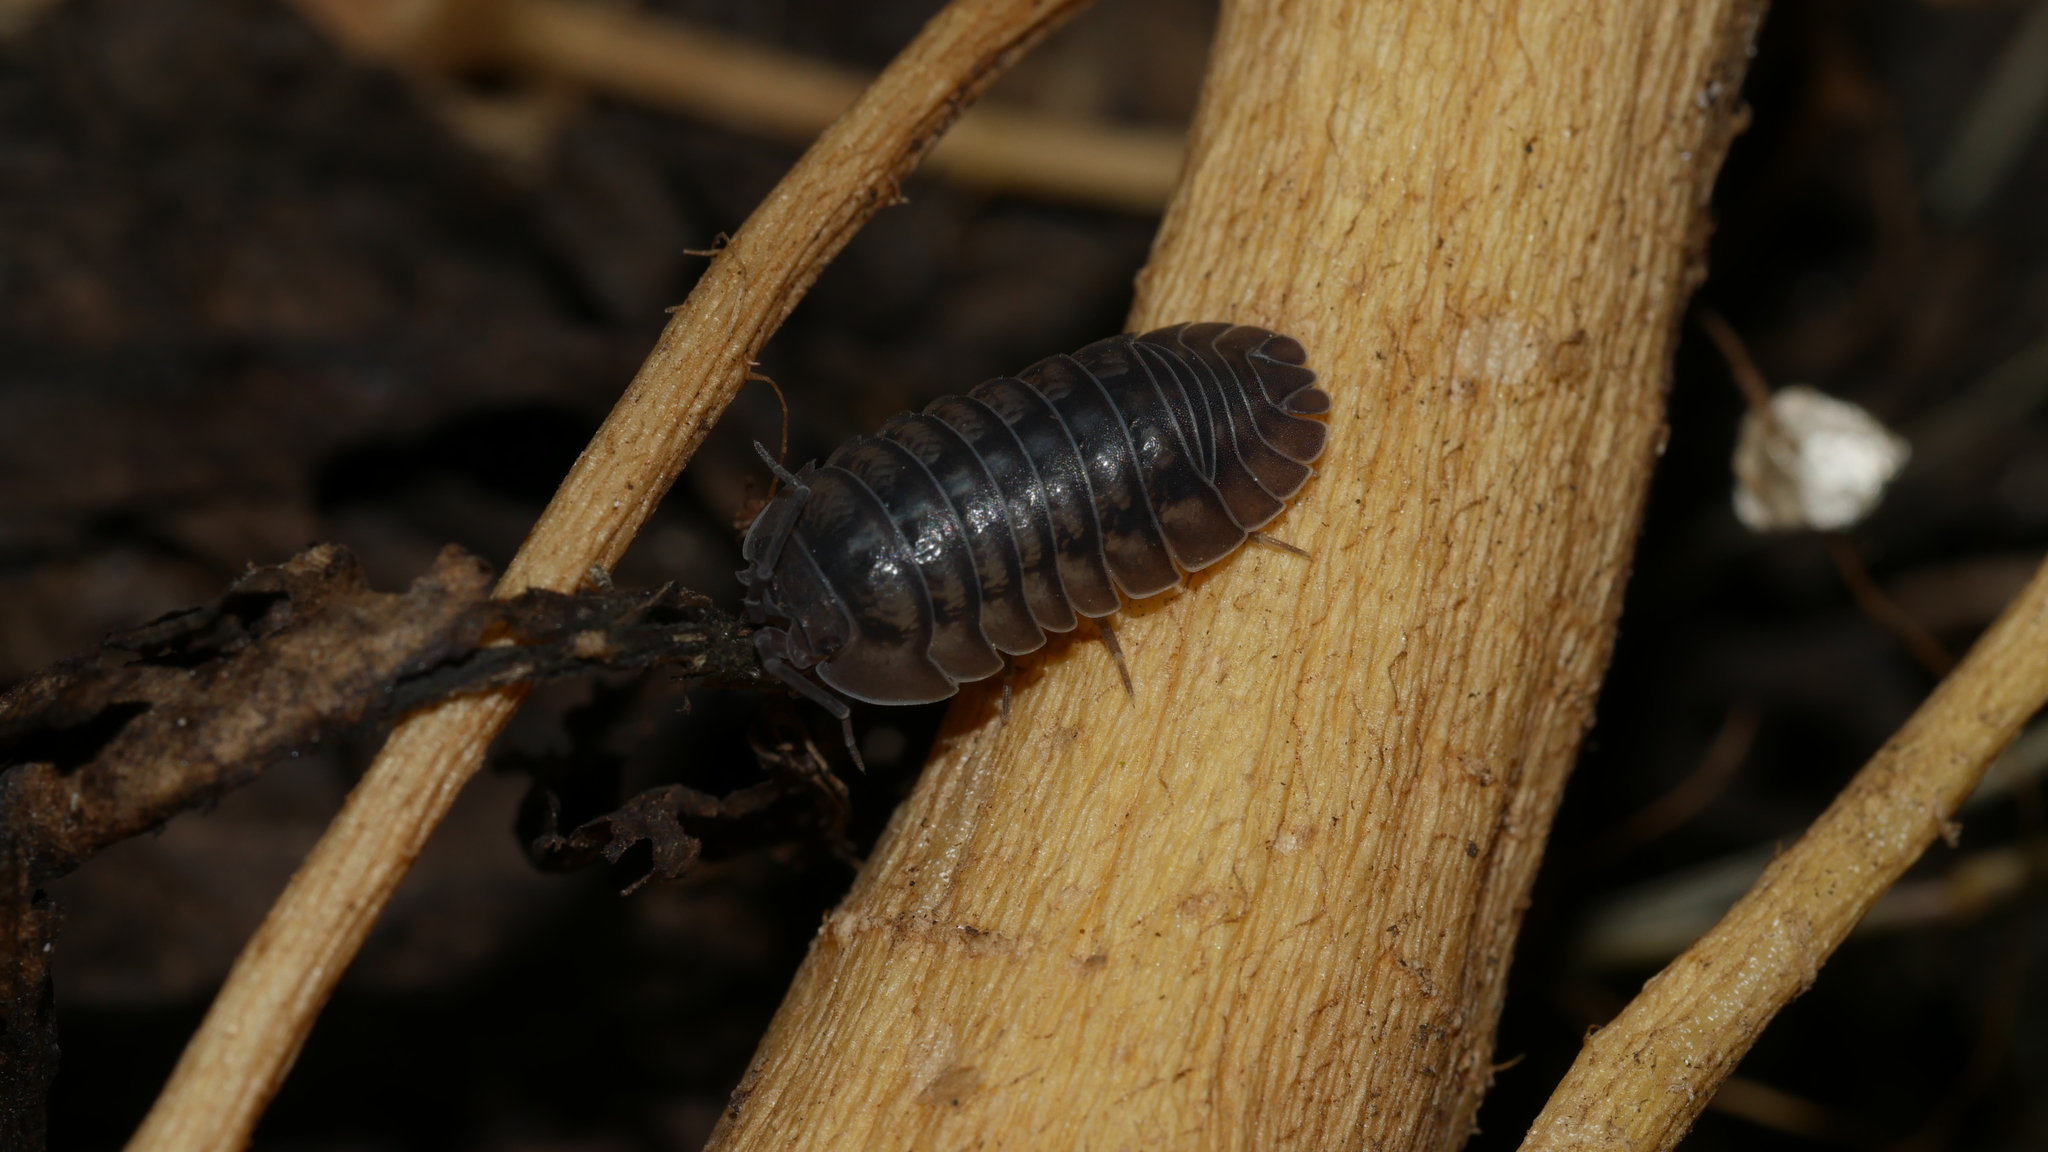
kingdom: Animalia
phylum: Arthropoda
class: Malacostraca
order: Isopoda
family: Armadillidiidae
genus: Armadillidium
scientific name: Armadillidium nasatum
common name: Isopod
